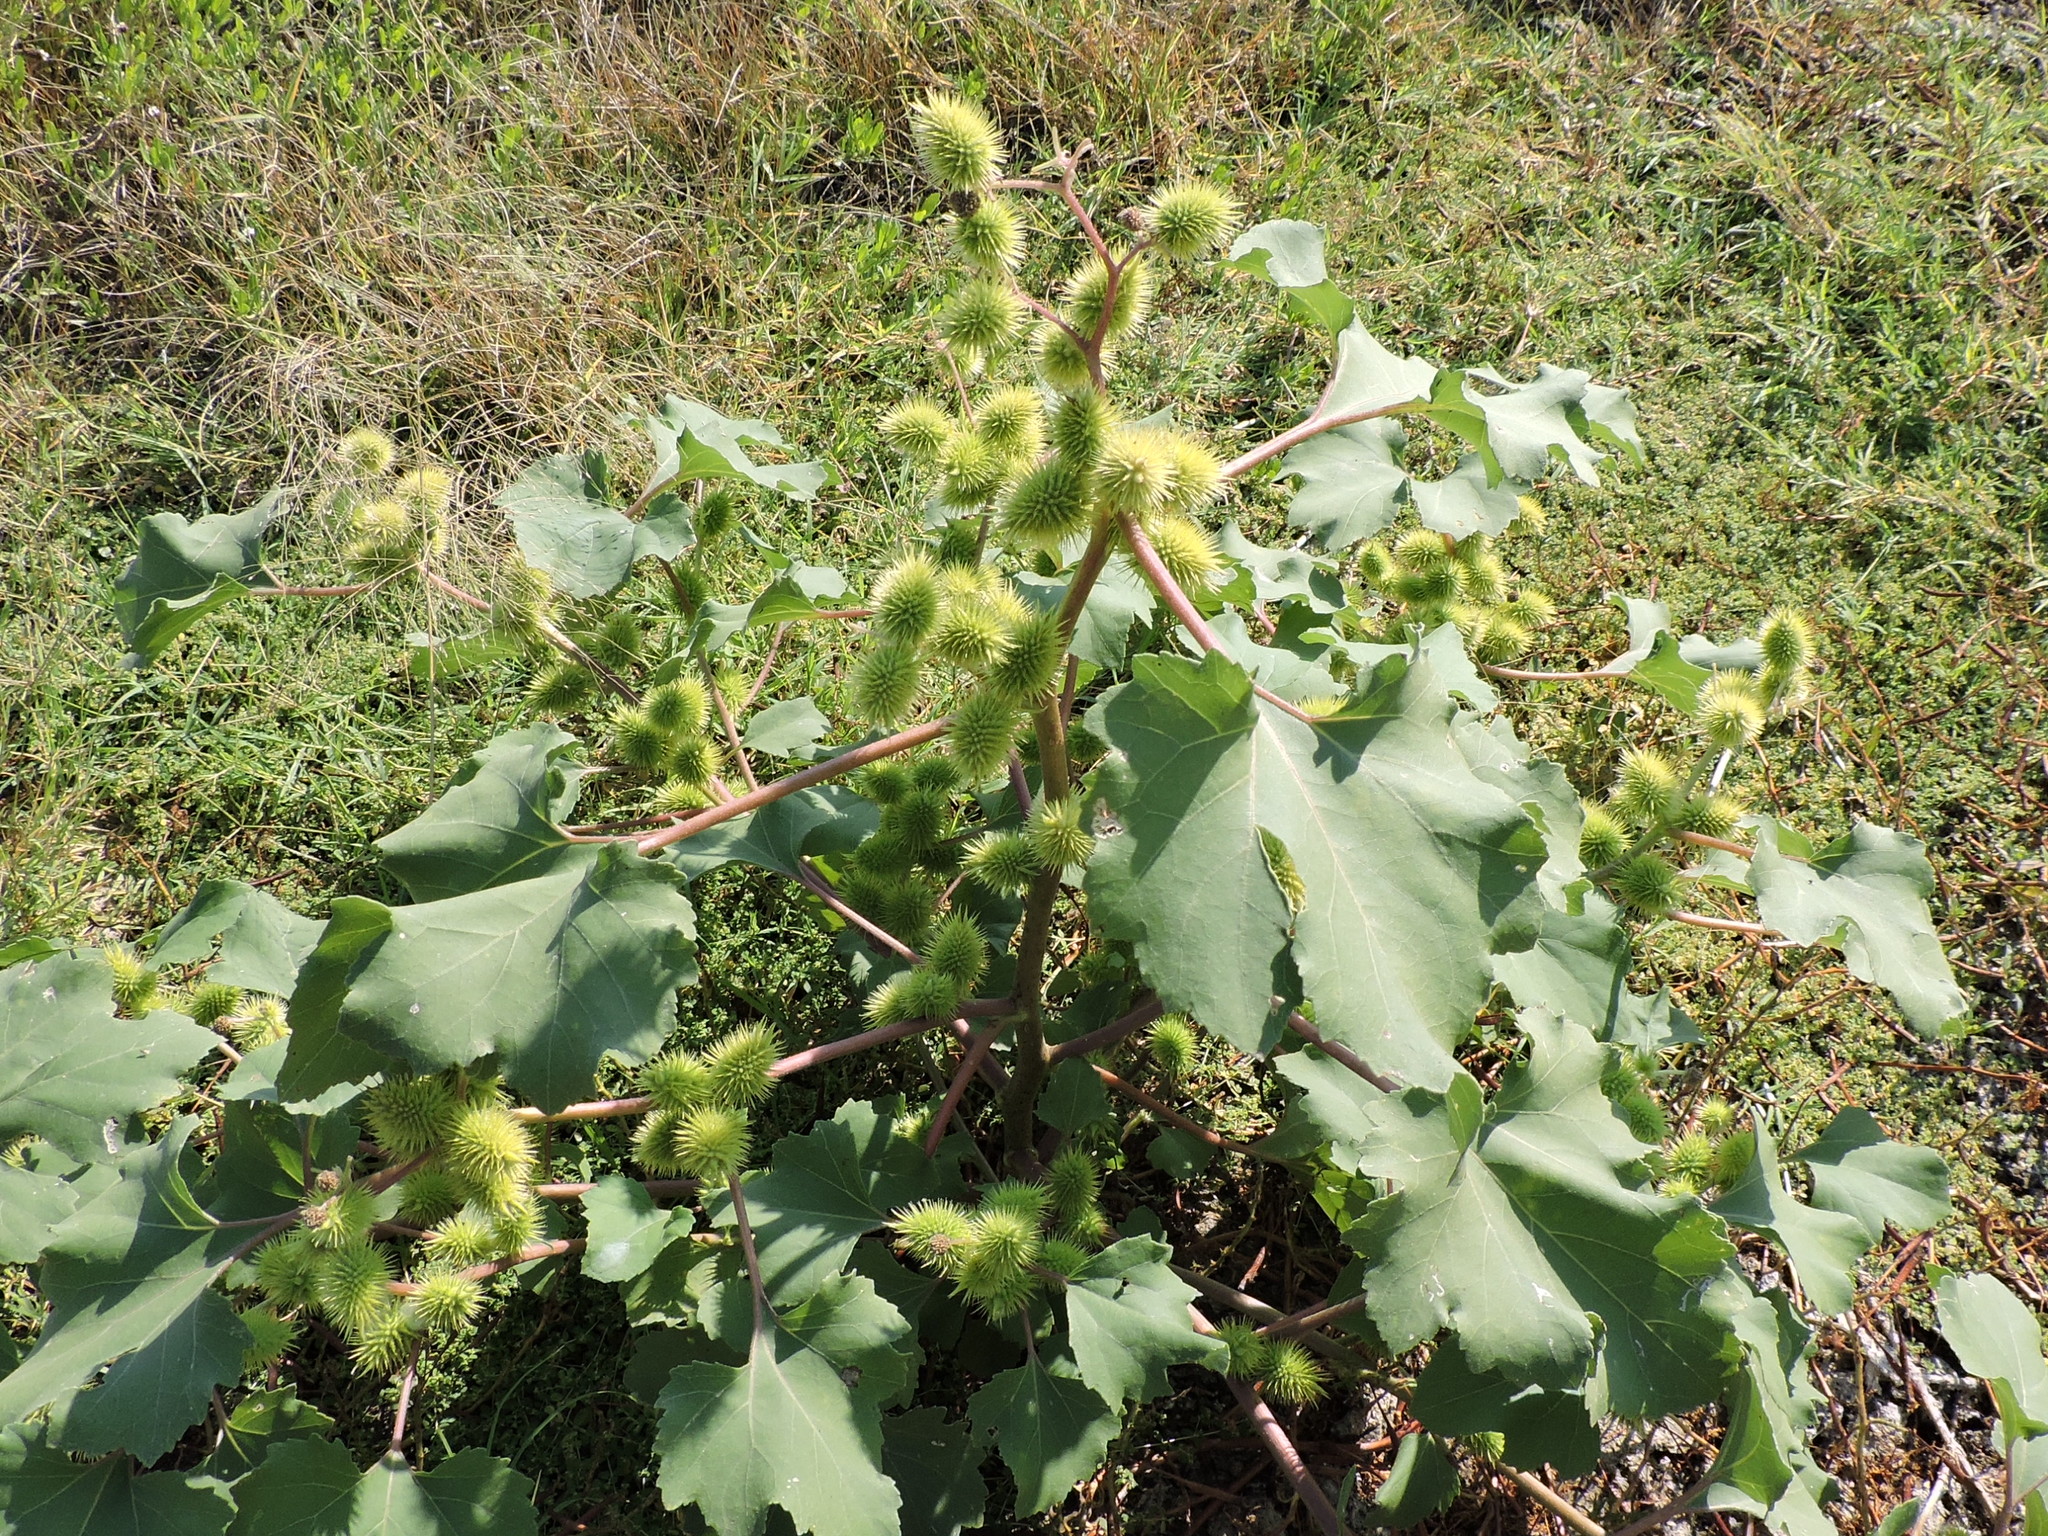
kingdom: Plantae
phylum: Tracheophyta
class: Magnoliopsida
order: Asterales
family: Asteraceae
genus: Xanthium
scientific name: Xanthium strumarium
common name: Rough cocklebur
